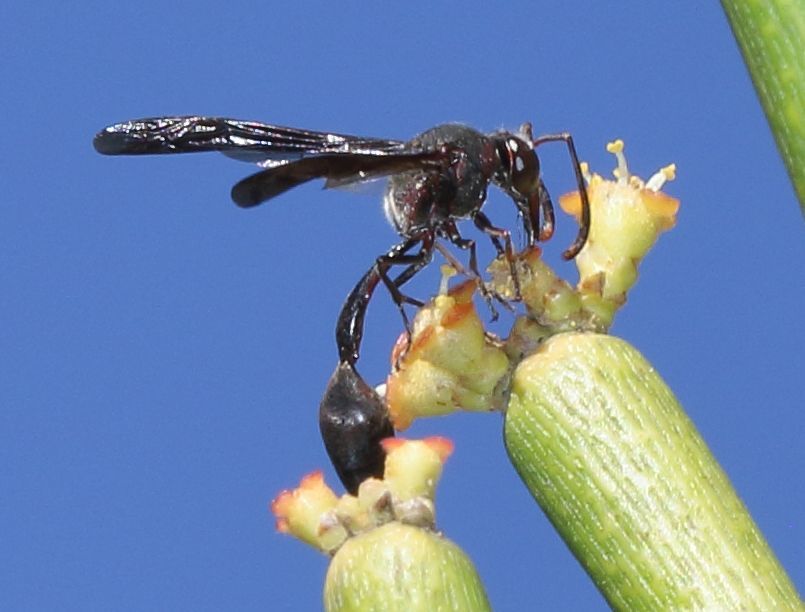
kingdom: Animalia
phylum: Arthropoda
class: Insecta
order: Hymenoptera
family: Eumenidae
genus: Delta
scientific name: Delta hottentotum
